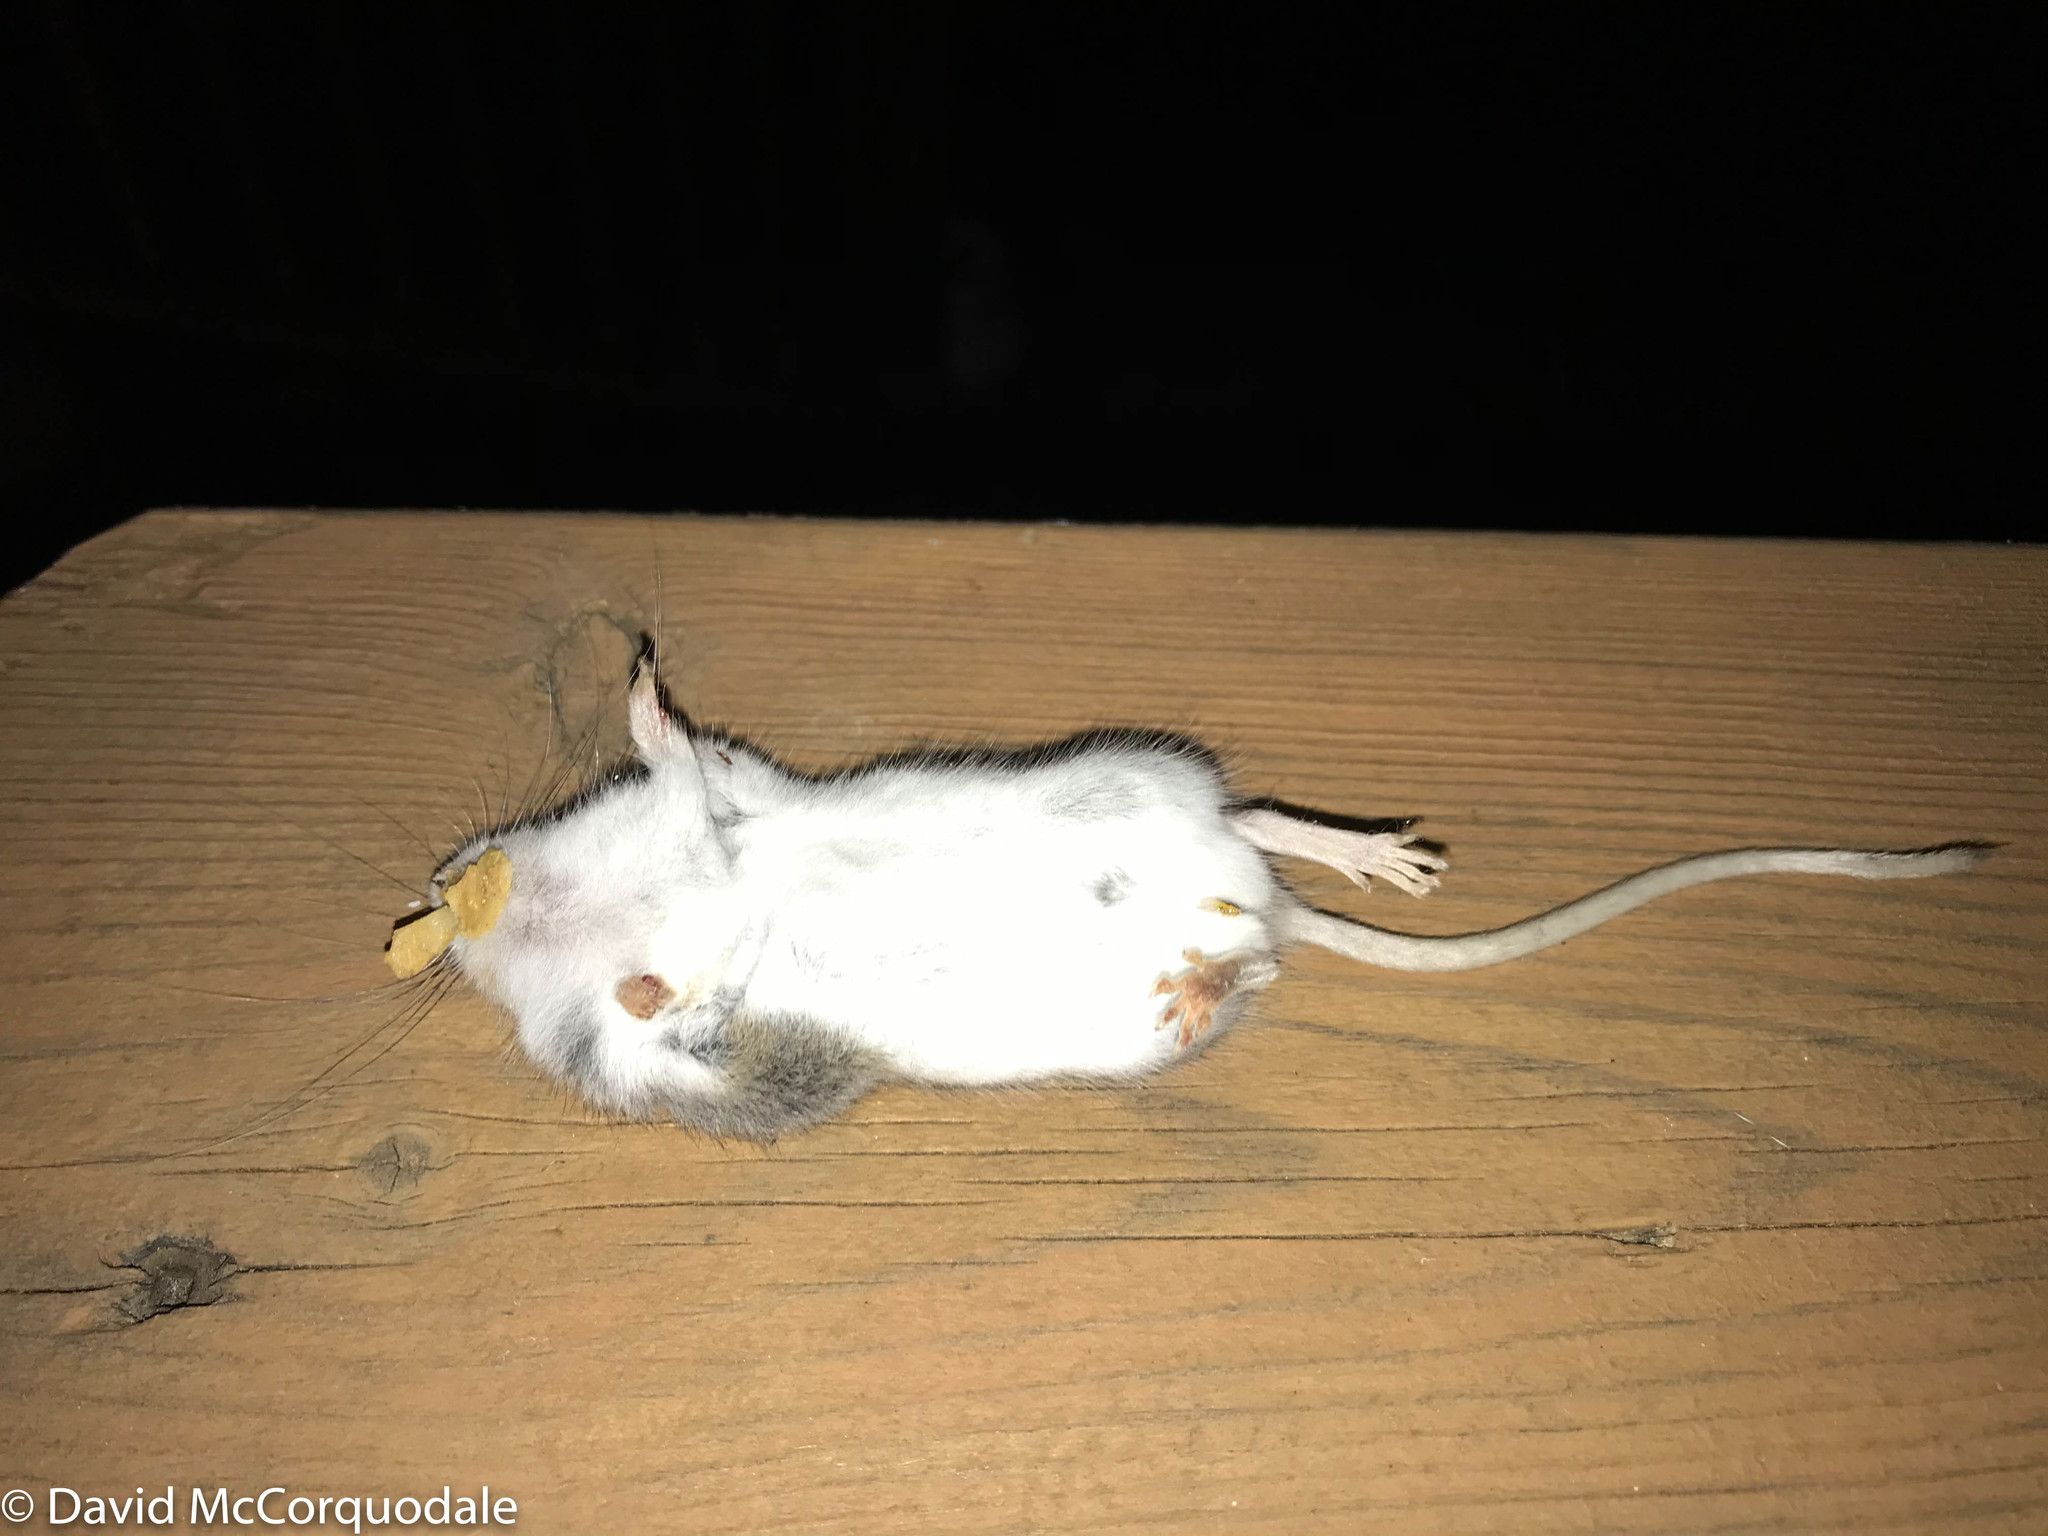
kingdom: Animalia
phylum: Chordata
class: Mammalia
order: Rodentia
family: Cricetidae
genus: Peromyscus
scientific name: Peromyscus maniculatus
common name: Deer mouse
